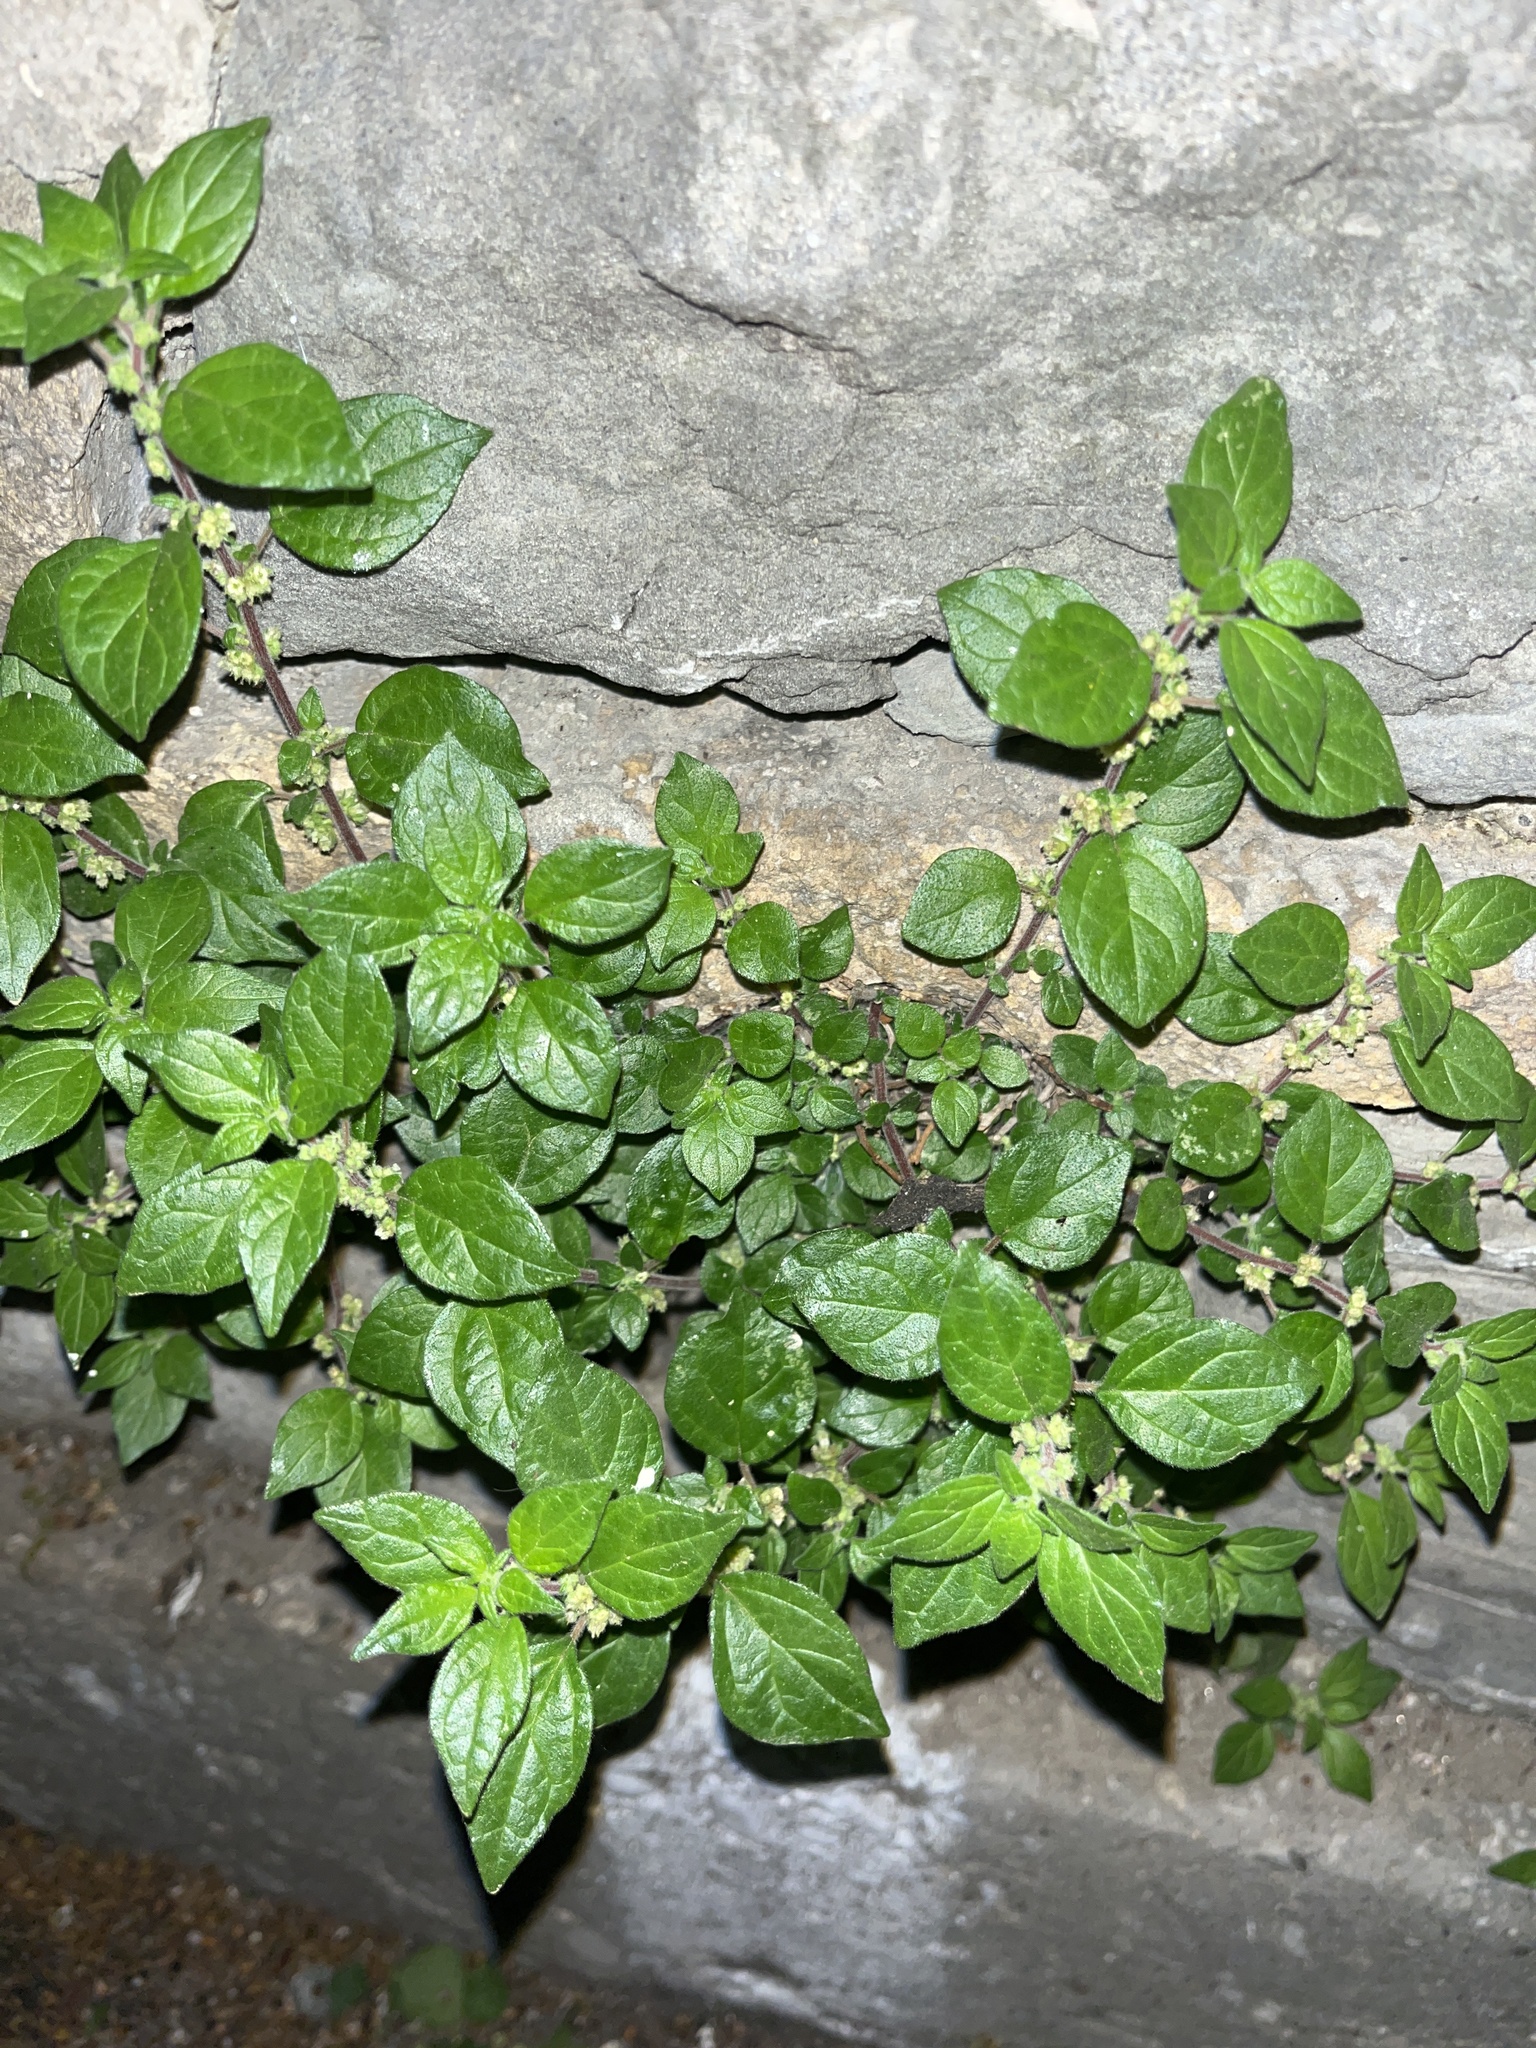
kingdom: Plantae
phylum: Tracheophyta
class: Magnoliopsida
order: Rosales
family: Urticaceae
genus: Parietaria
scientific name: Parietaria judaica
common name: Pellitory-of-the-wall
